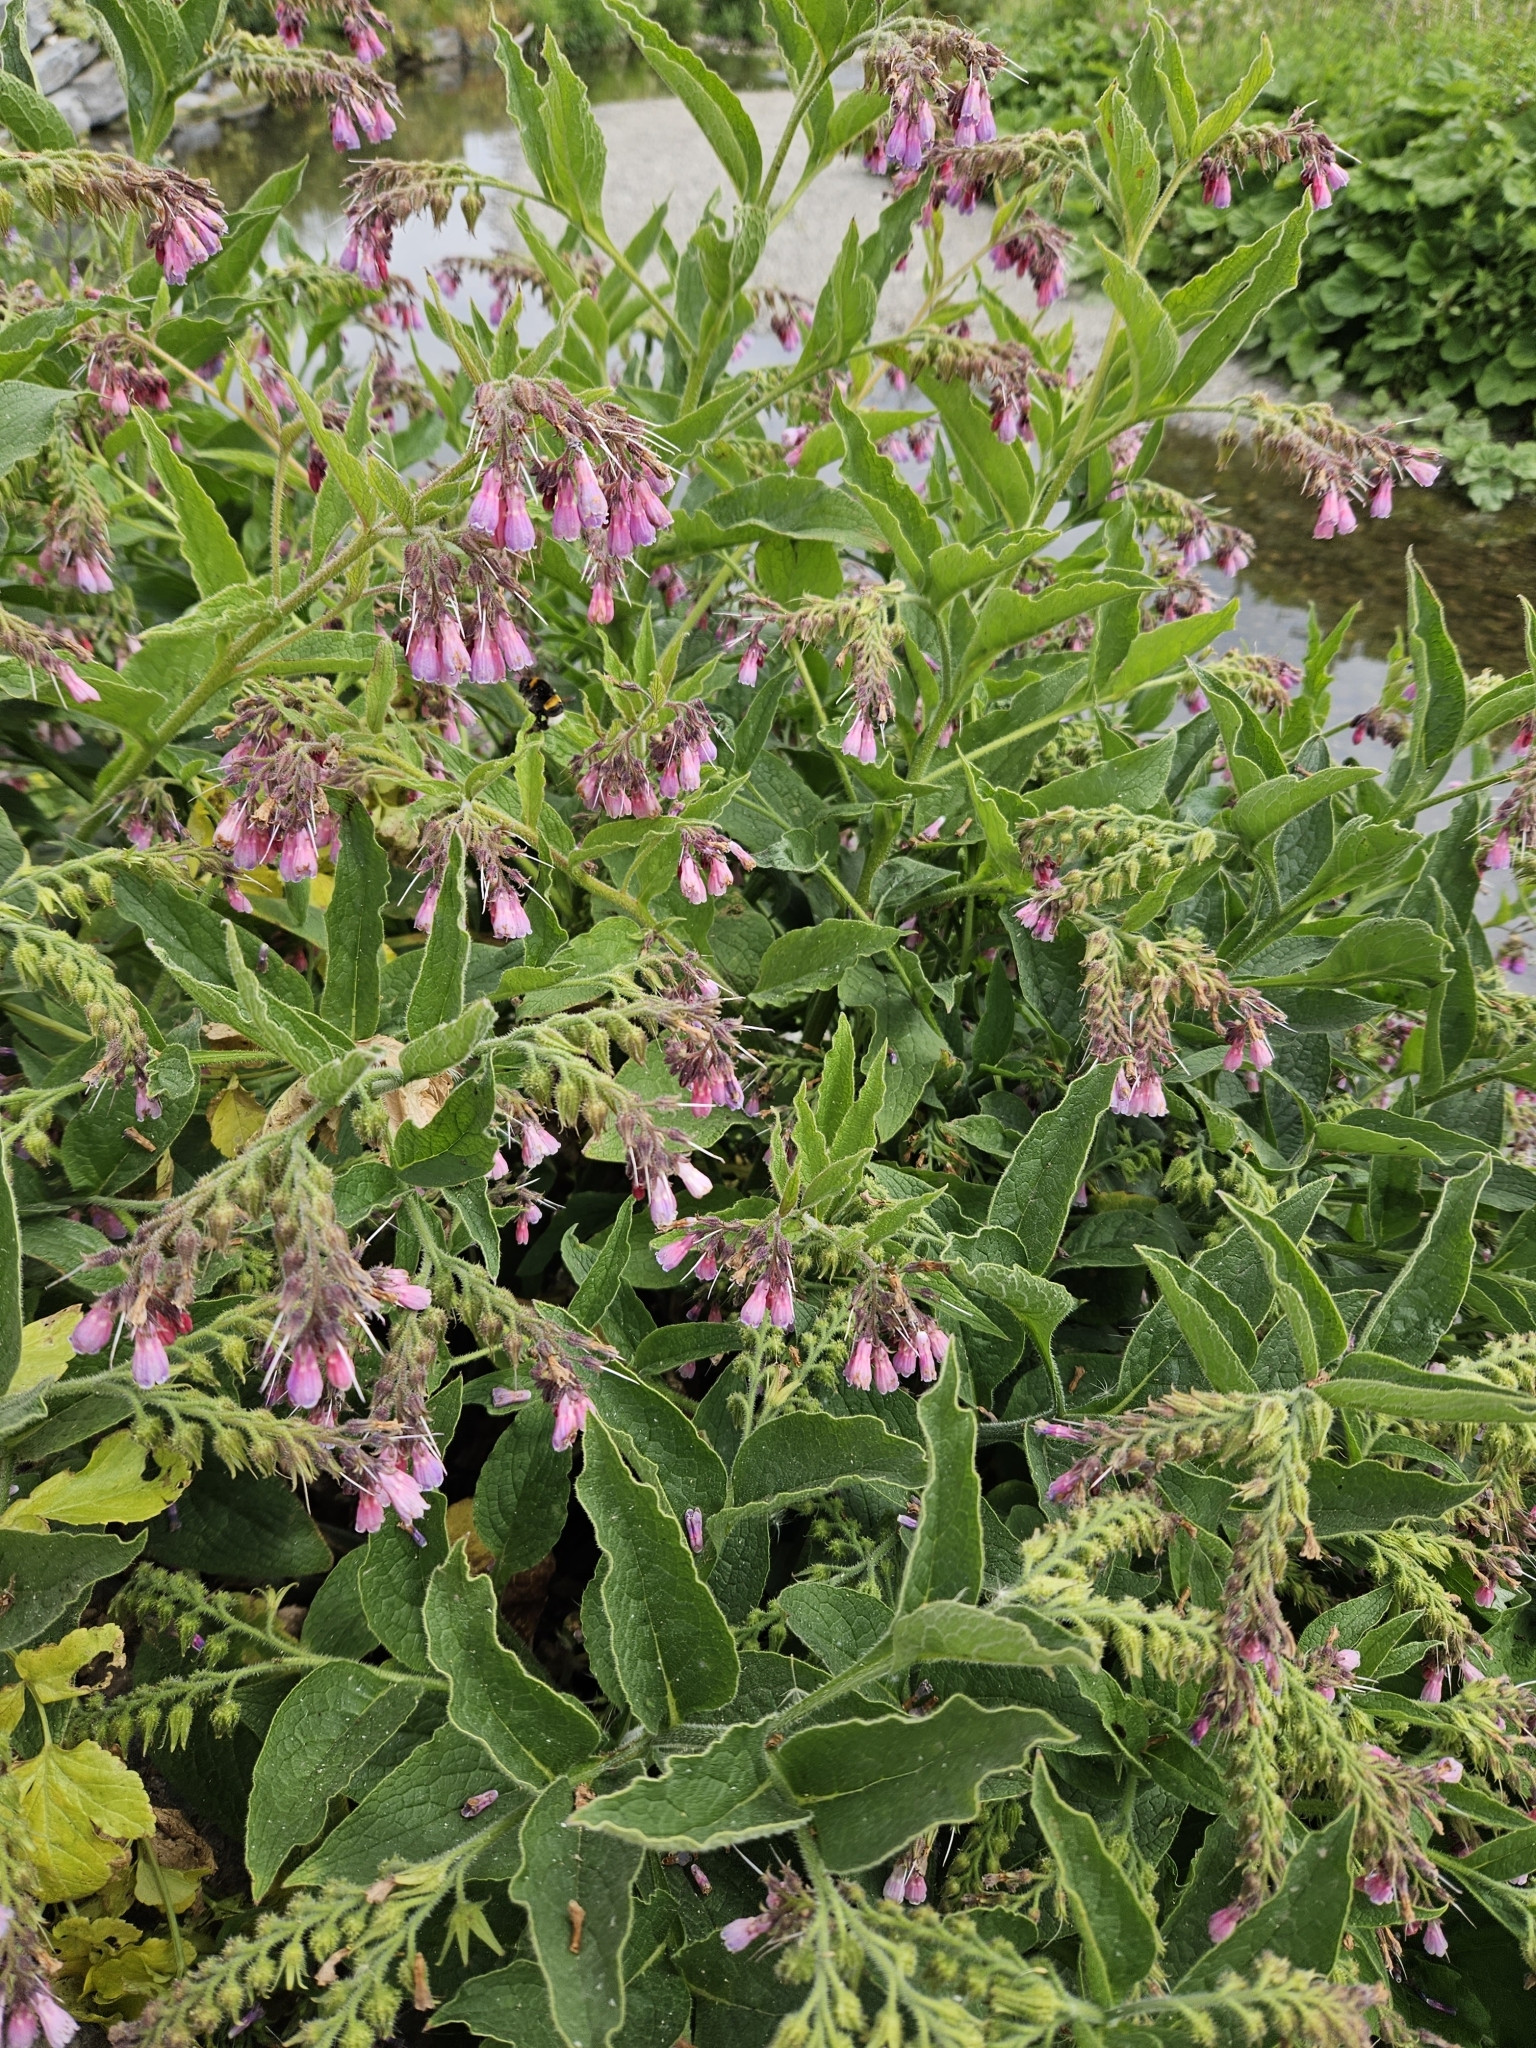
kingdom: Plantae
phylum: Tracheophyta
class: Magnoliopsida
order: Boraginales
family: Boraginaceae
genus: Symphytum
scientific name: Symphytum uplandicum
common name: Russian comfrey
